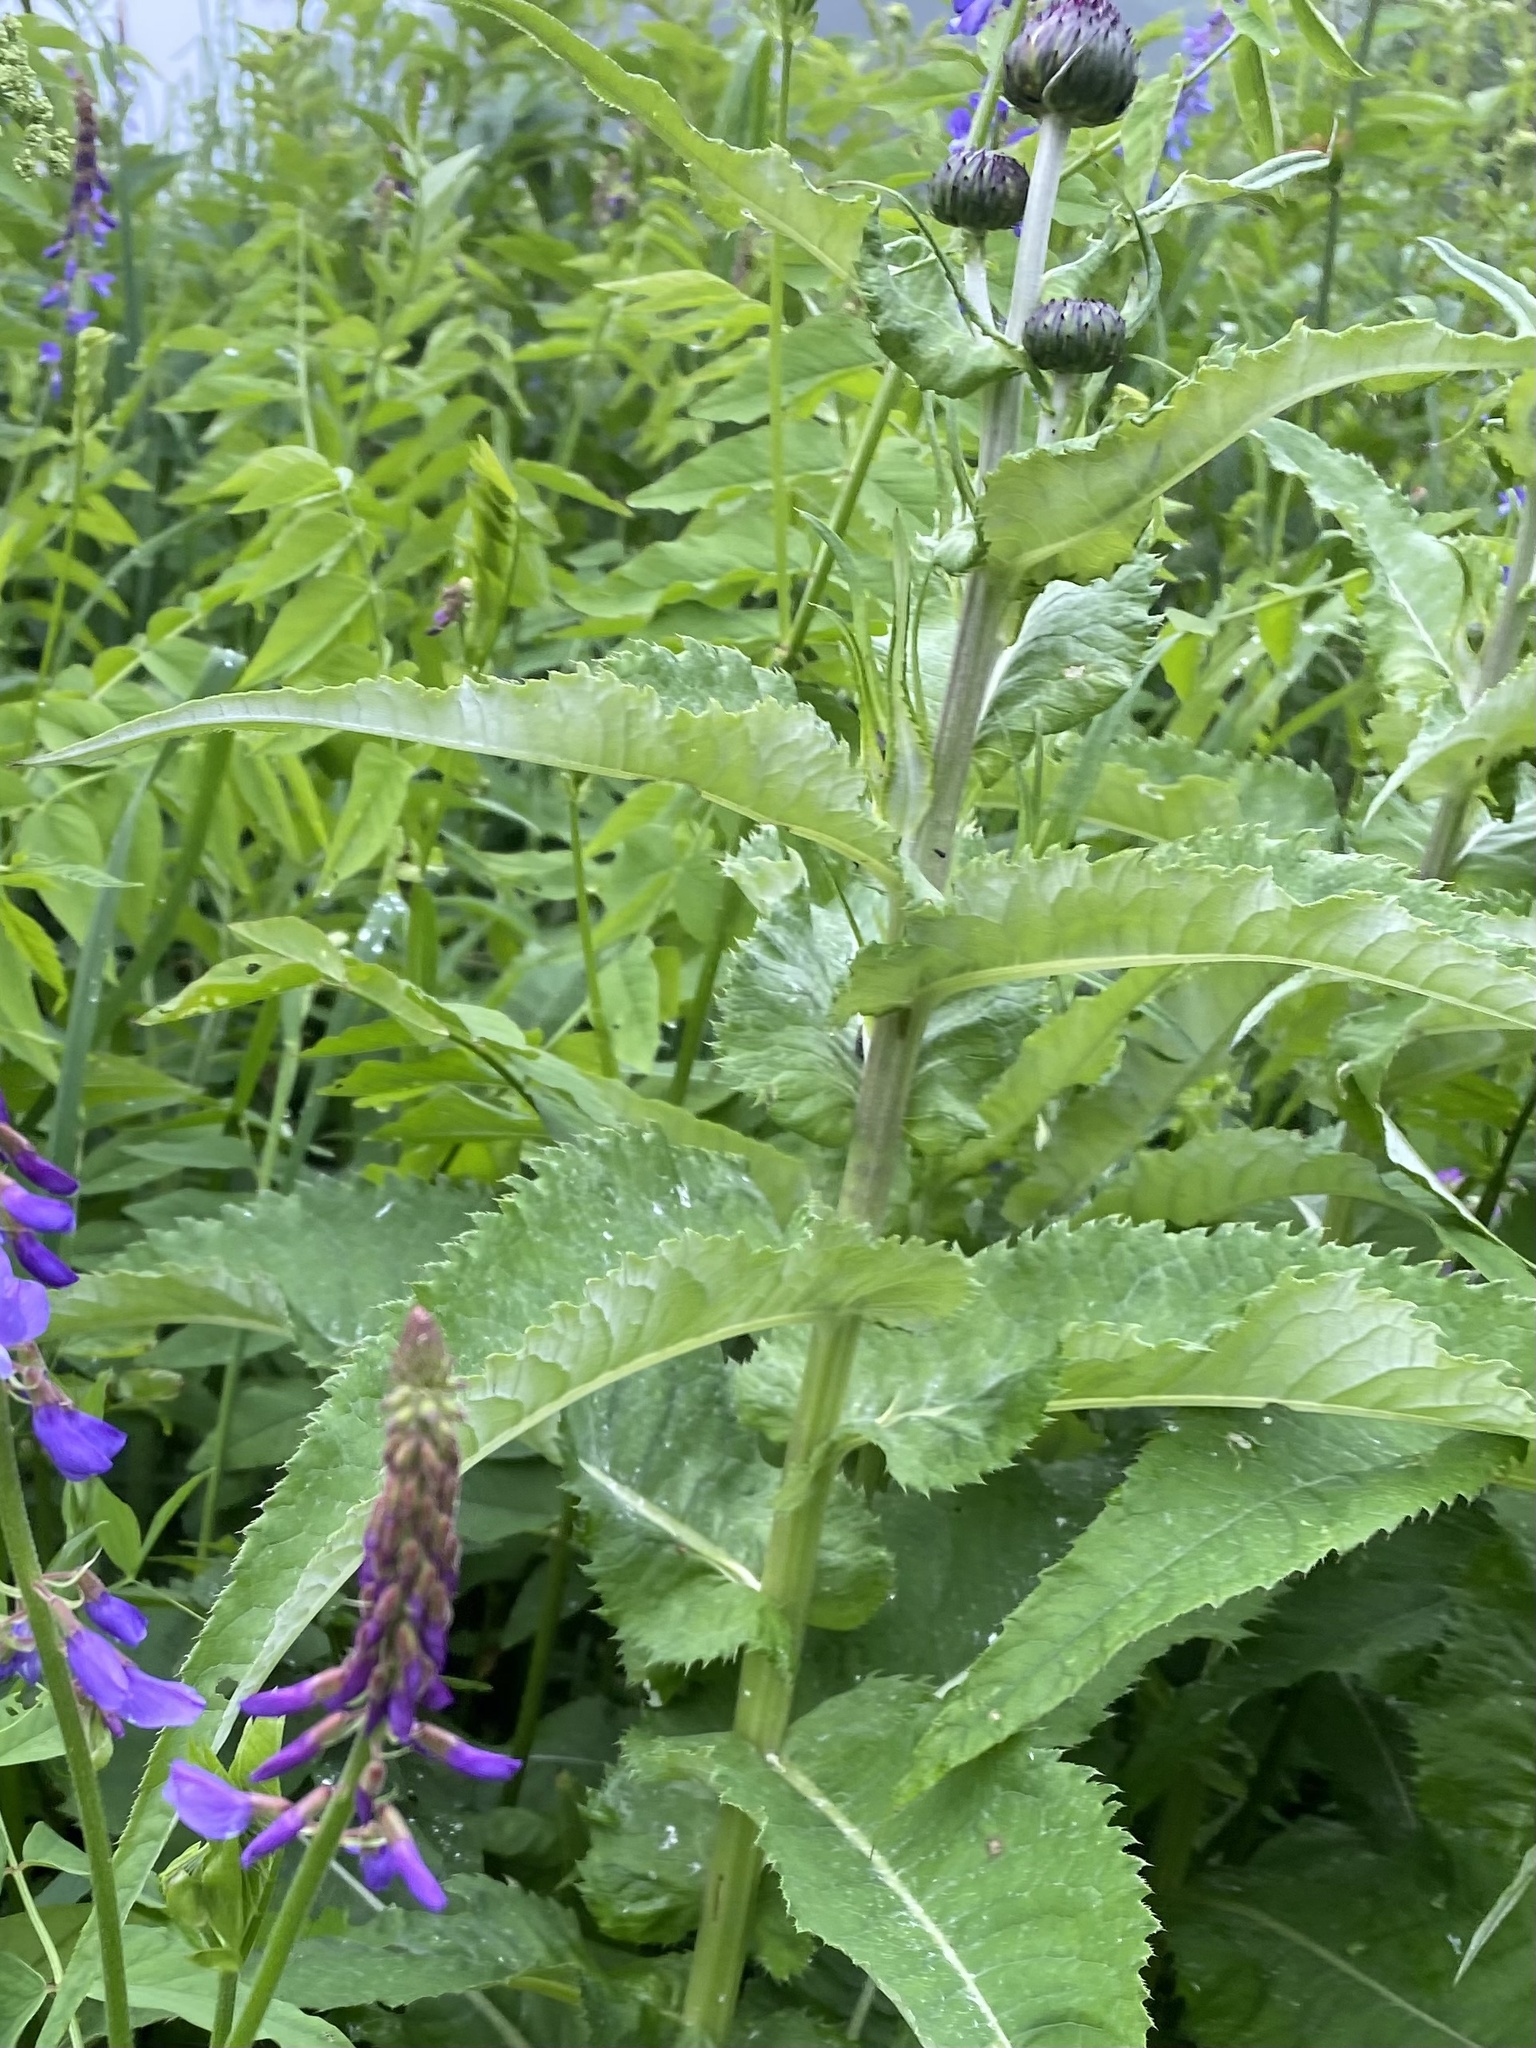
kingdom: Plantae
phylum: Tracheophyta
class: Magnoliopsida
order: Asterales
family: Asteraceae
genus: Cirsium
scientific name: Cirsium dealbatum
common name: Whitish thistle
